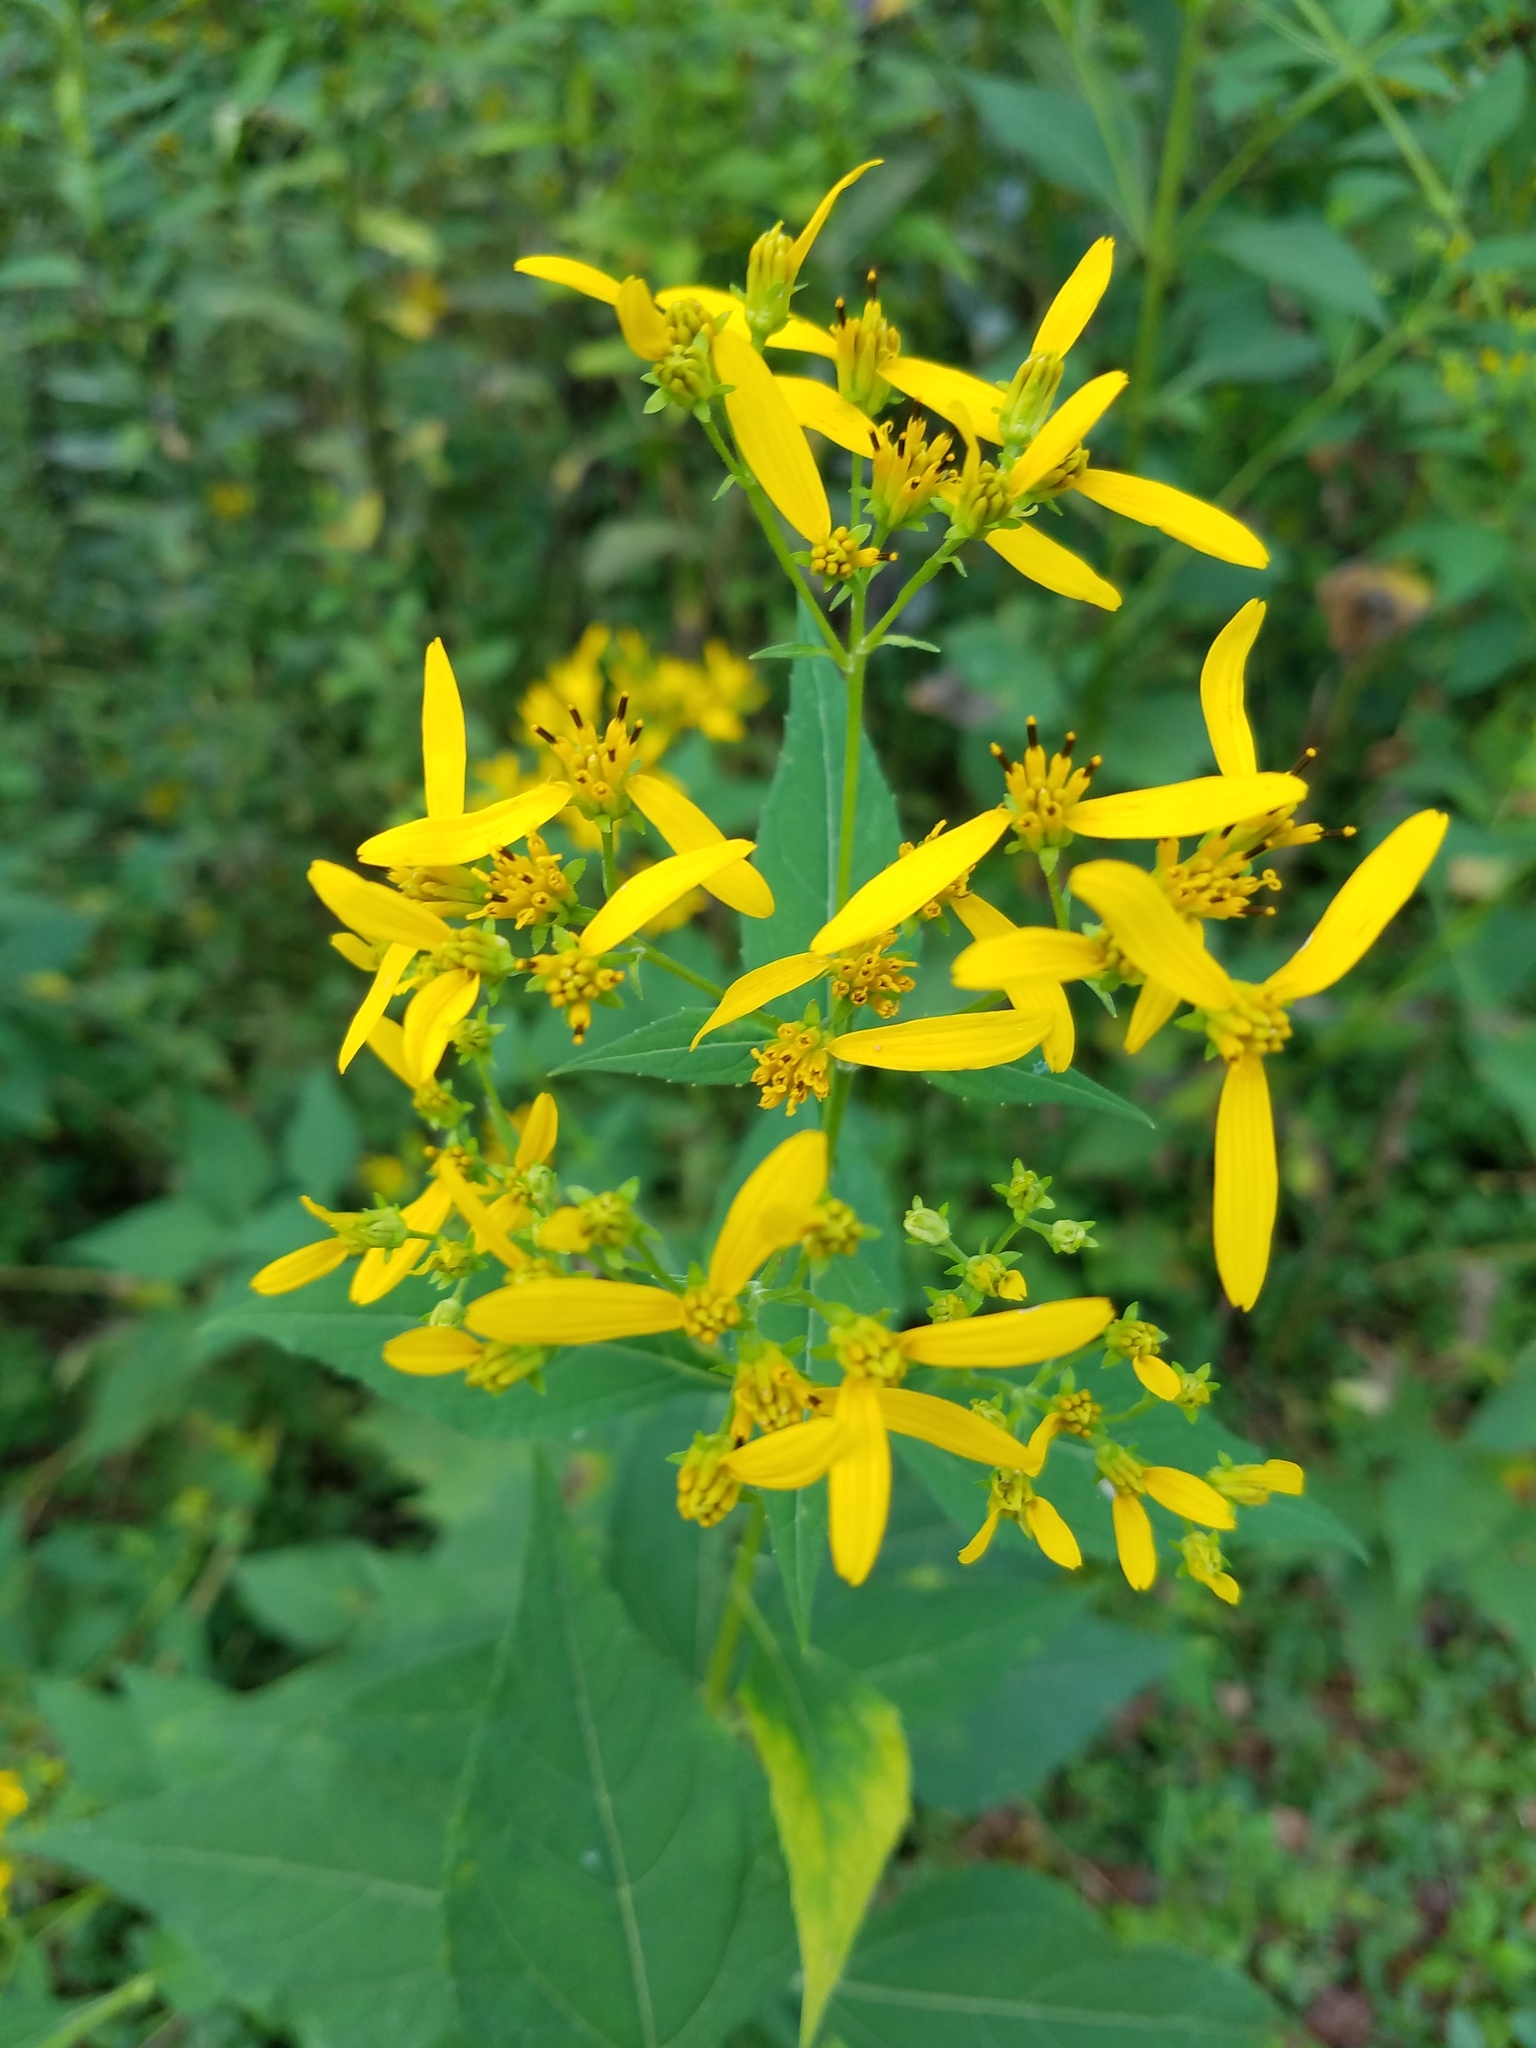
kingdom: Plantae
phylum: Tracheophyta
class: Magnoliopsida
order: Asterales
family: Asteraceae
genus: Verbesina
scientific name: Verbesina occidentalis
